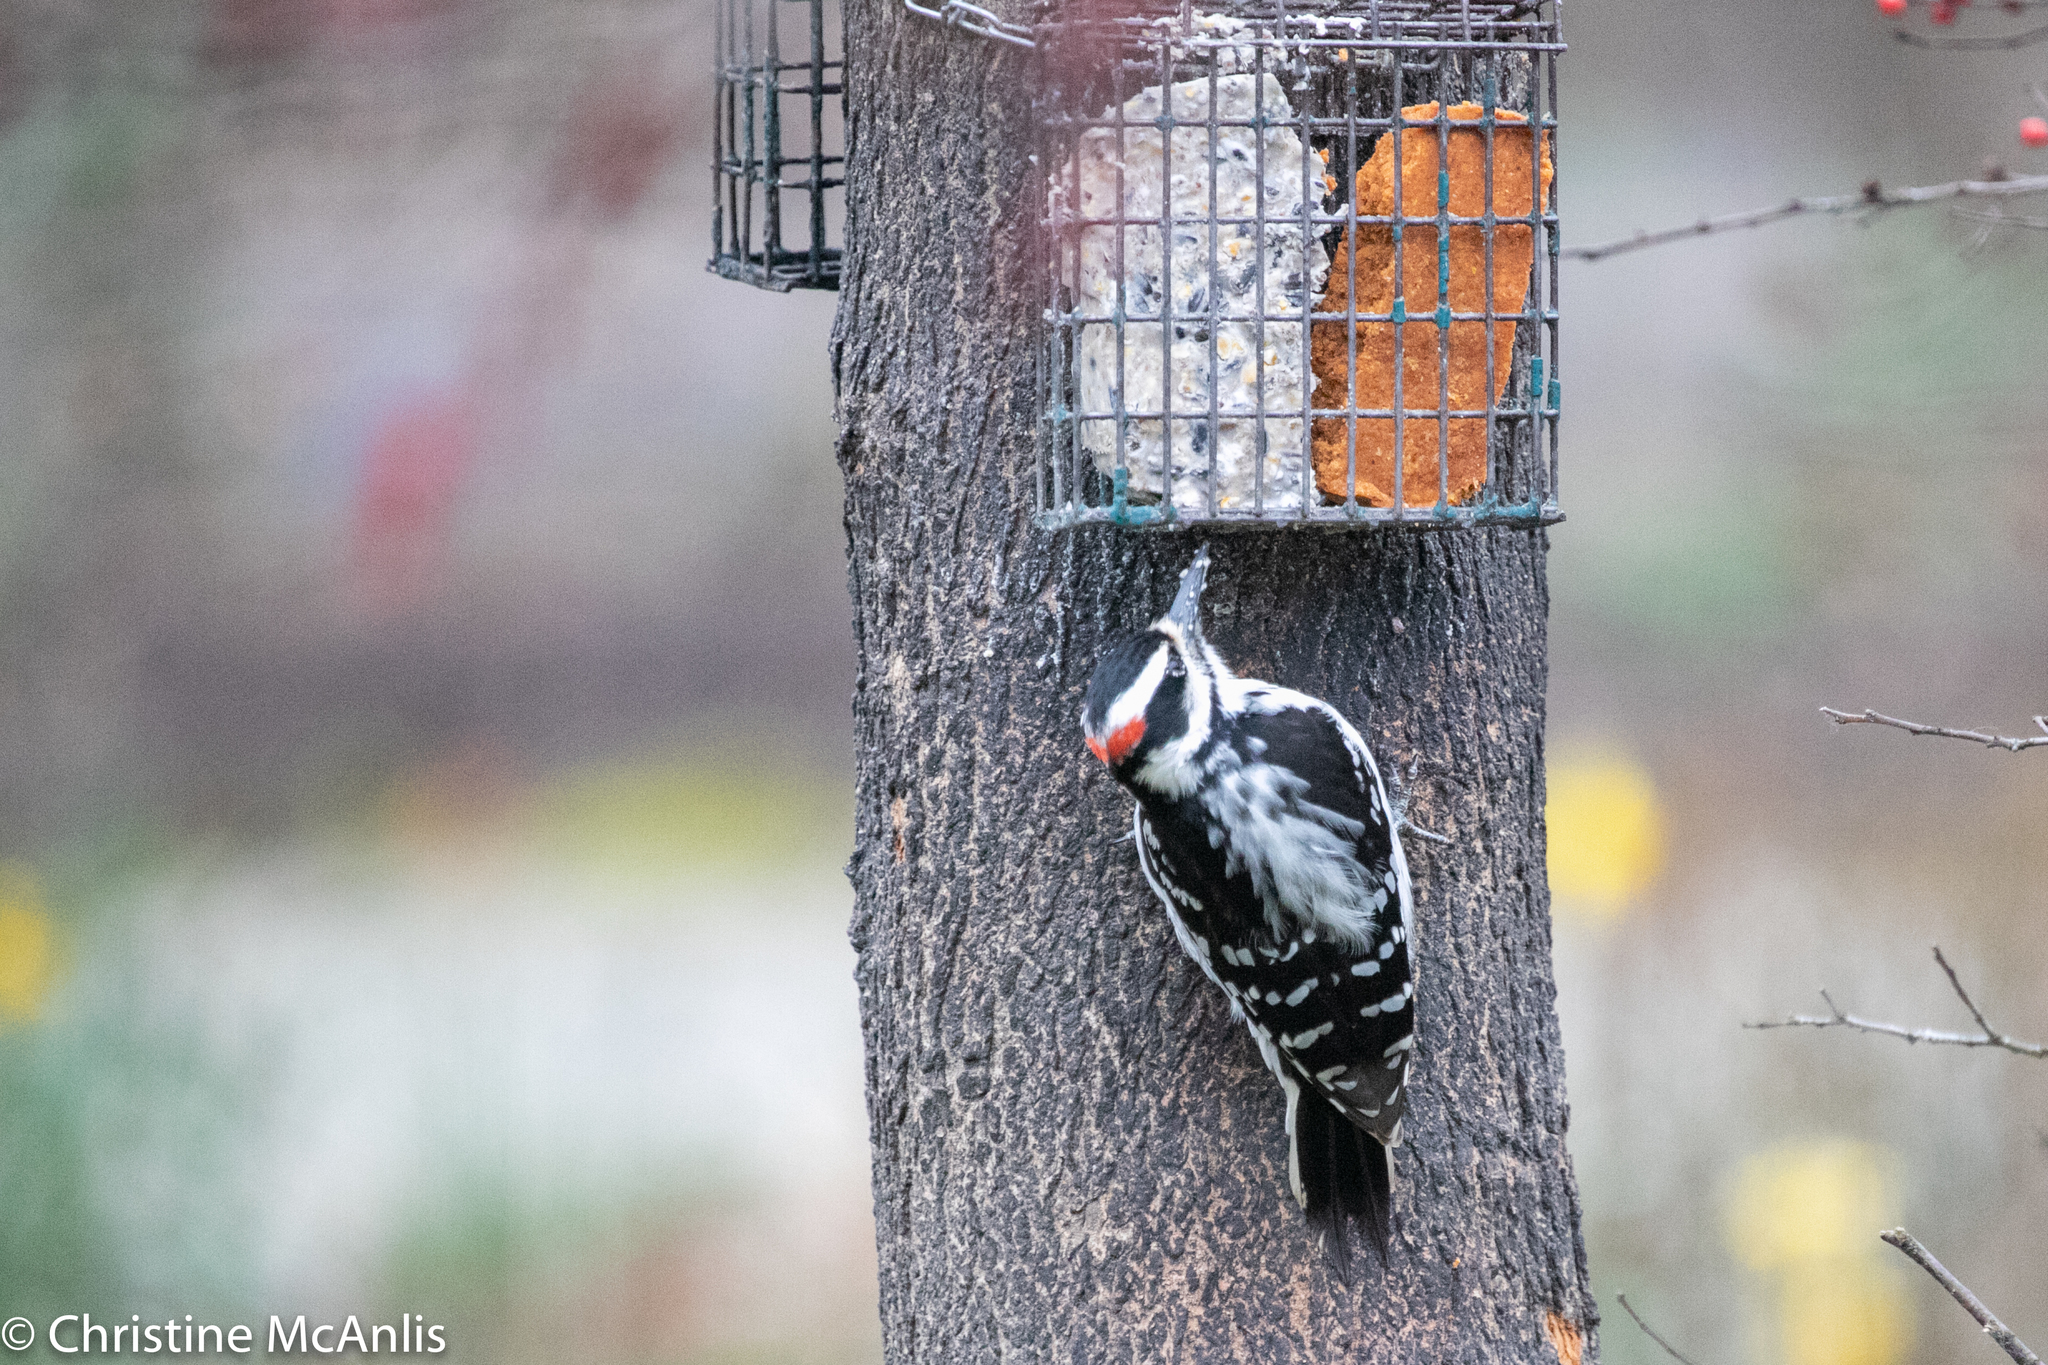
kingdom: Animalia
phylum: Chordata
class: Aves
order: Piciformes
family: Picidae
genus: Leuconotopicus
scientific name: Leuconotopicus villosus
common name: Hairy woodpecker
